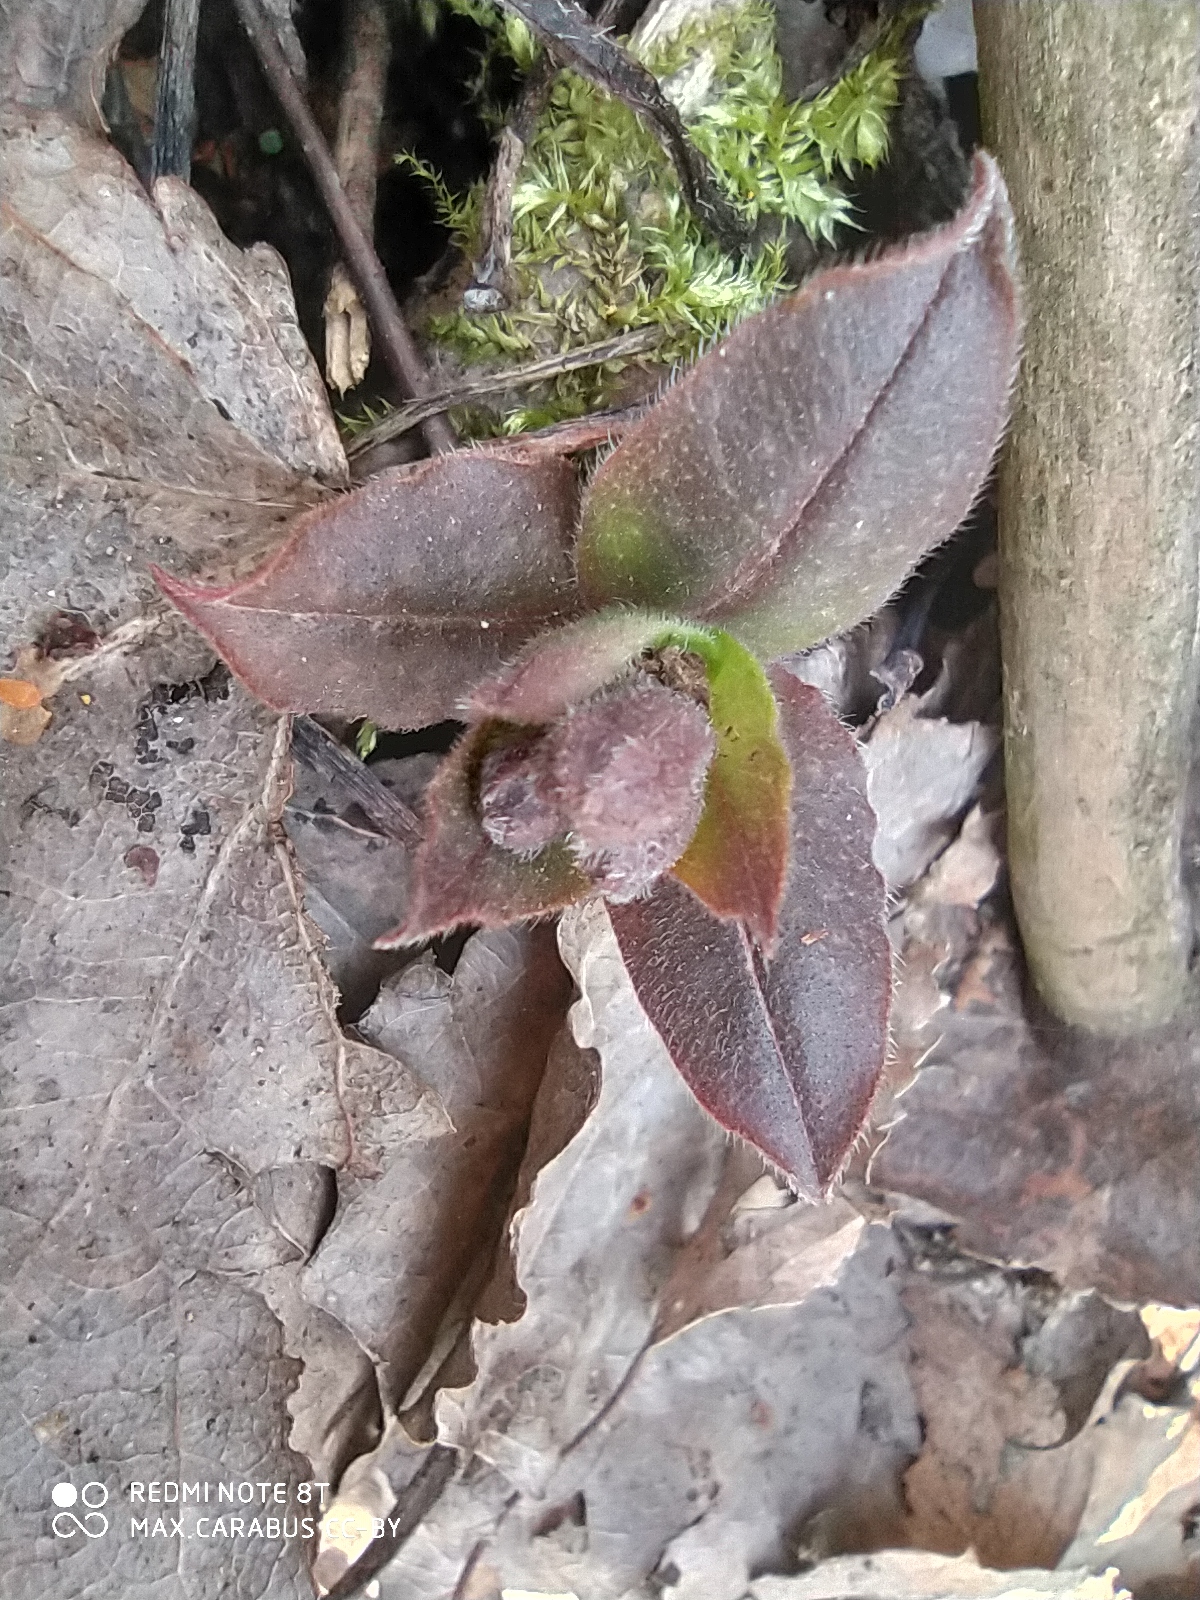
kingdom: Plantae
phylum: Tracheophyta
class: Magnoliopsida
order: Boraginales
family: Boraginaceae
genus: Pulmonaria
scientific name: Pulmonaria obscura
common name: Suffolk lungwort
